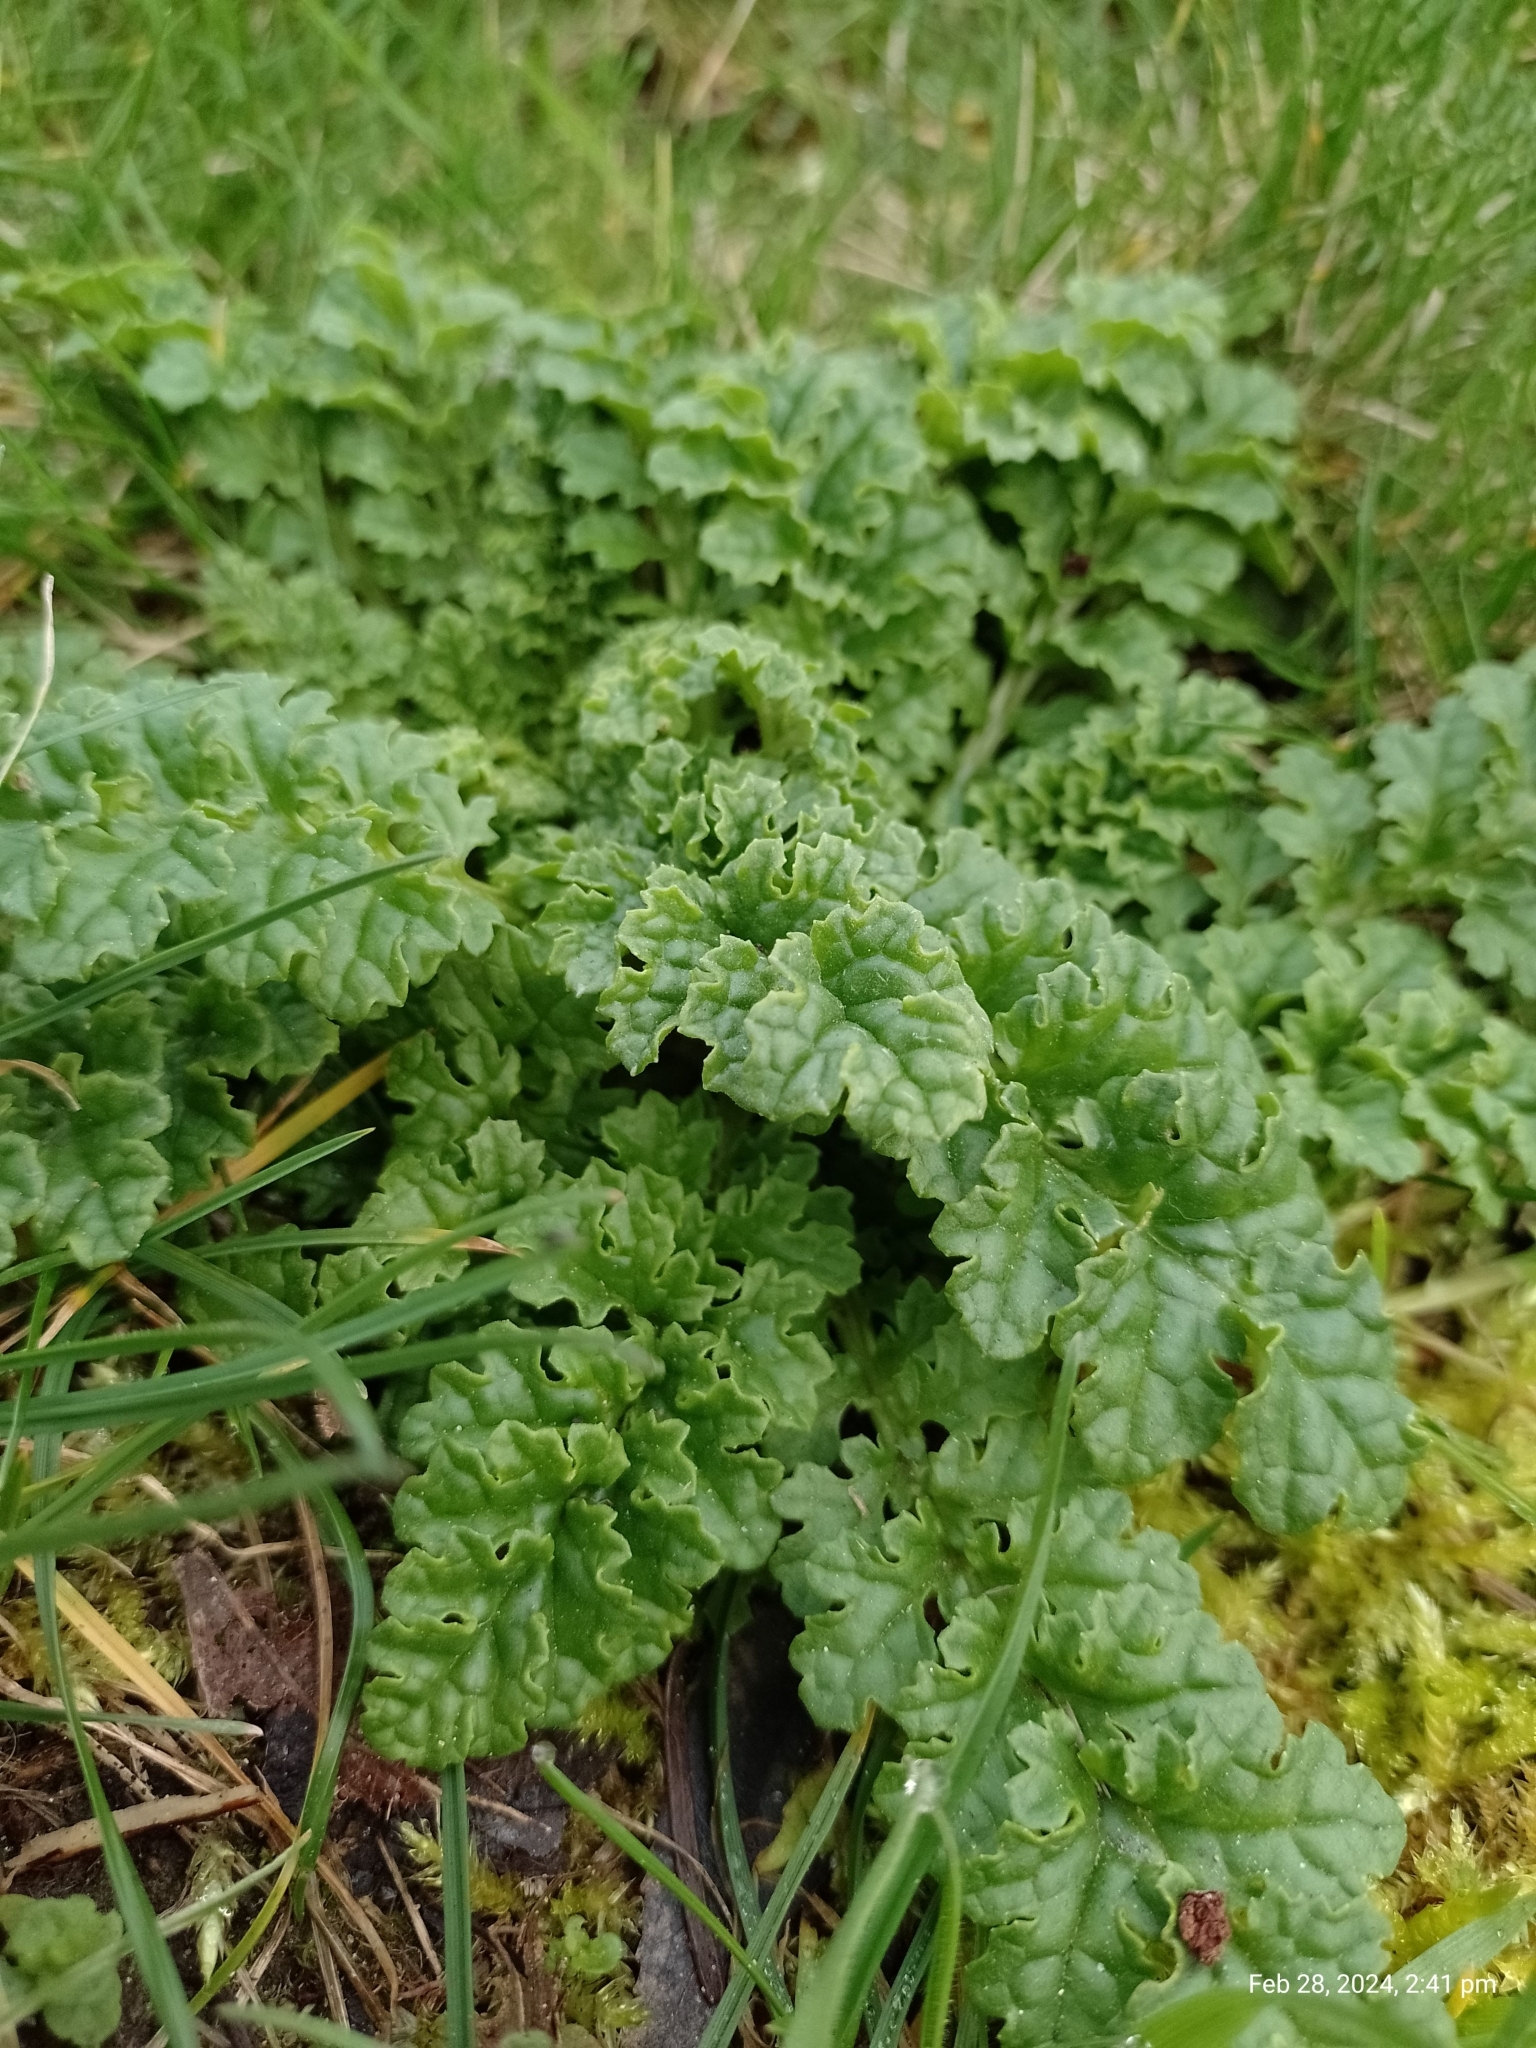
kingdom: Plantae
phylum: Tracheophyta
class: Magnoliopsida
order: Asterales
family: Asteraceae
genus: Jacobaea
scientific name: Jacobaea vulgaris
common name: Stinking willie
